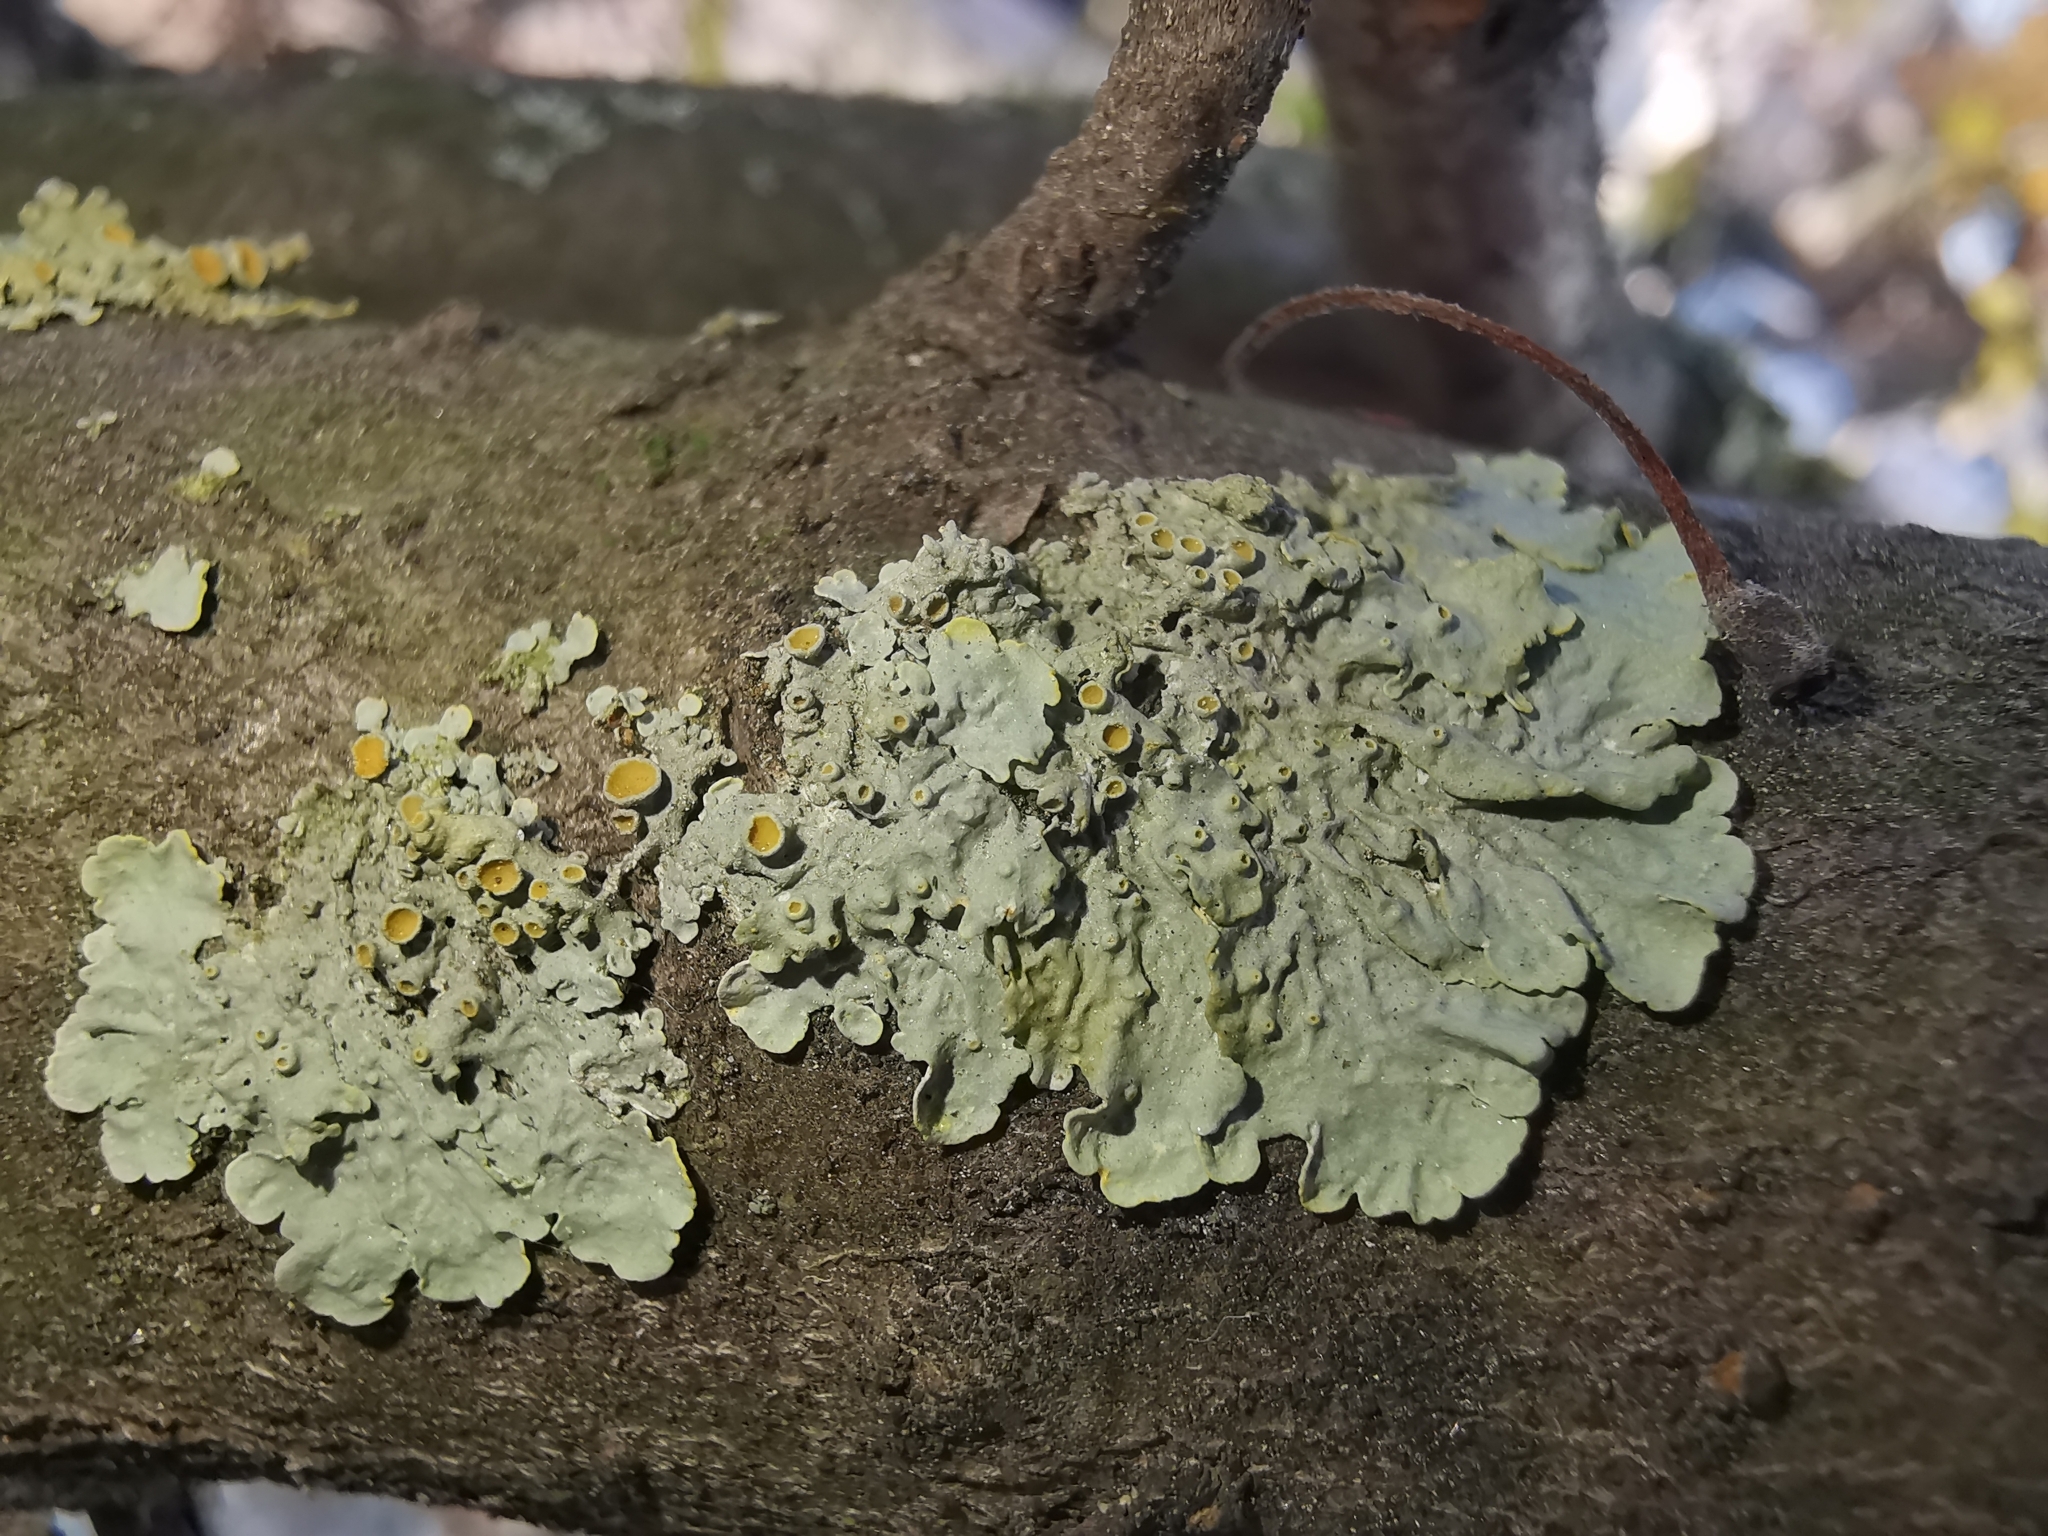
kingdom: Fungi
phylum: Ascomycota
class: Lecanoromycetes
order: Teloschistales
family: Teloschistaceae
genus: Xanthoria
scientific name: Xanthoria parietina
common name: Common orange lichen
